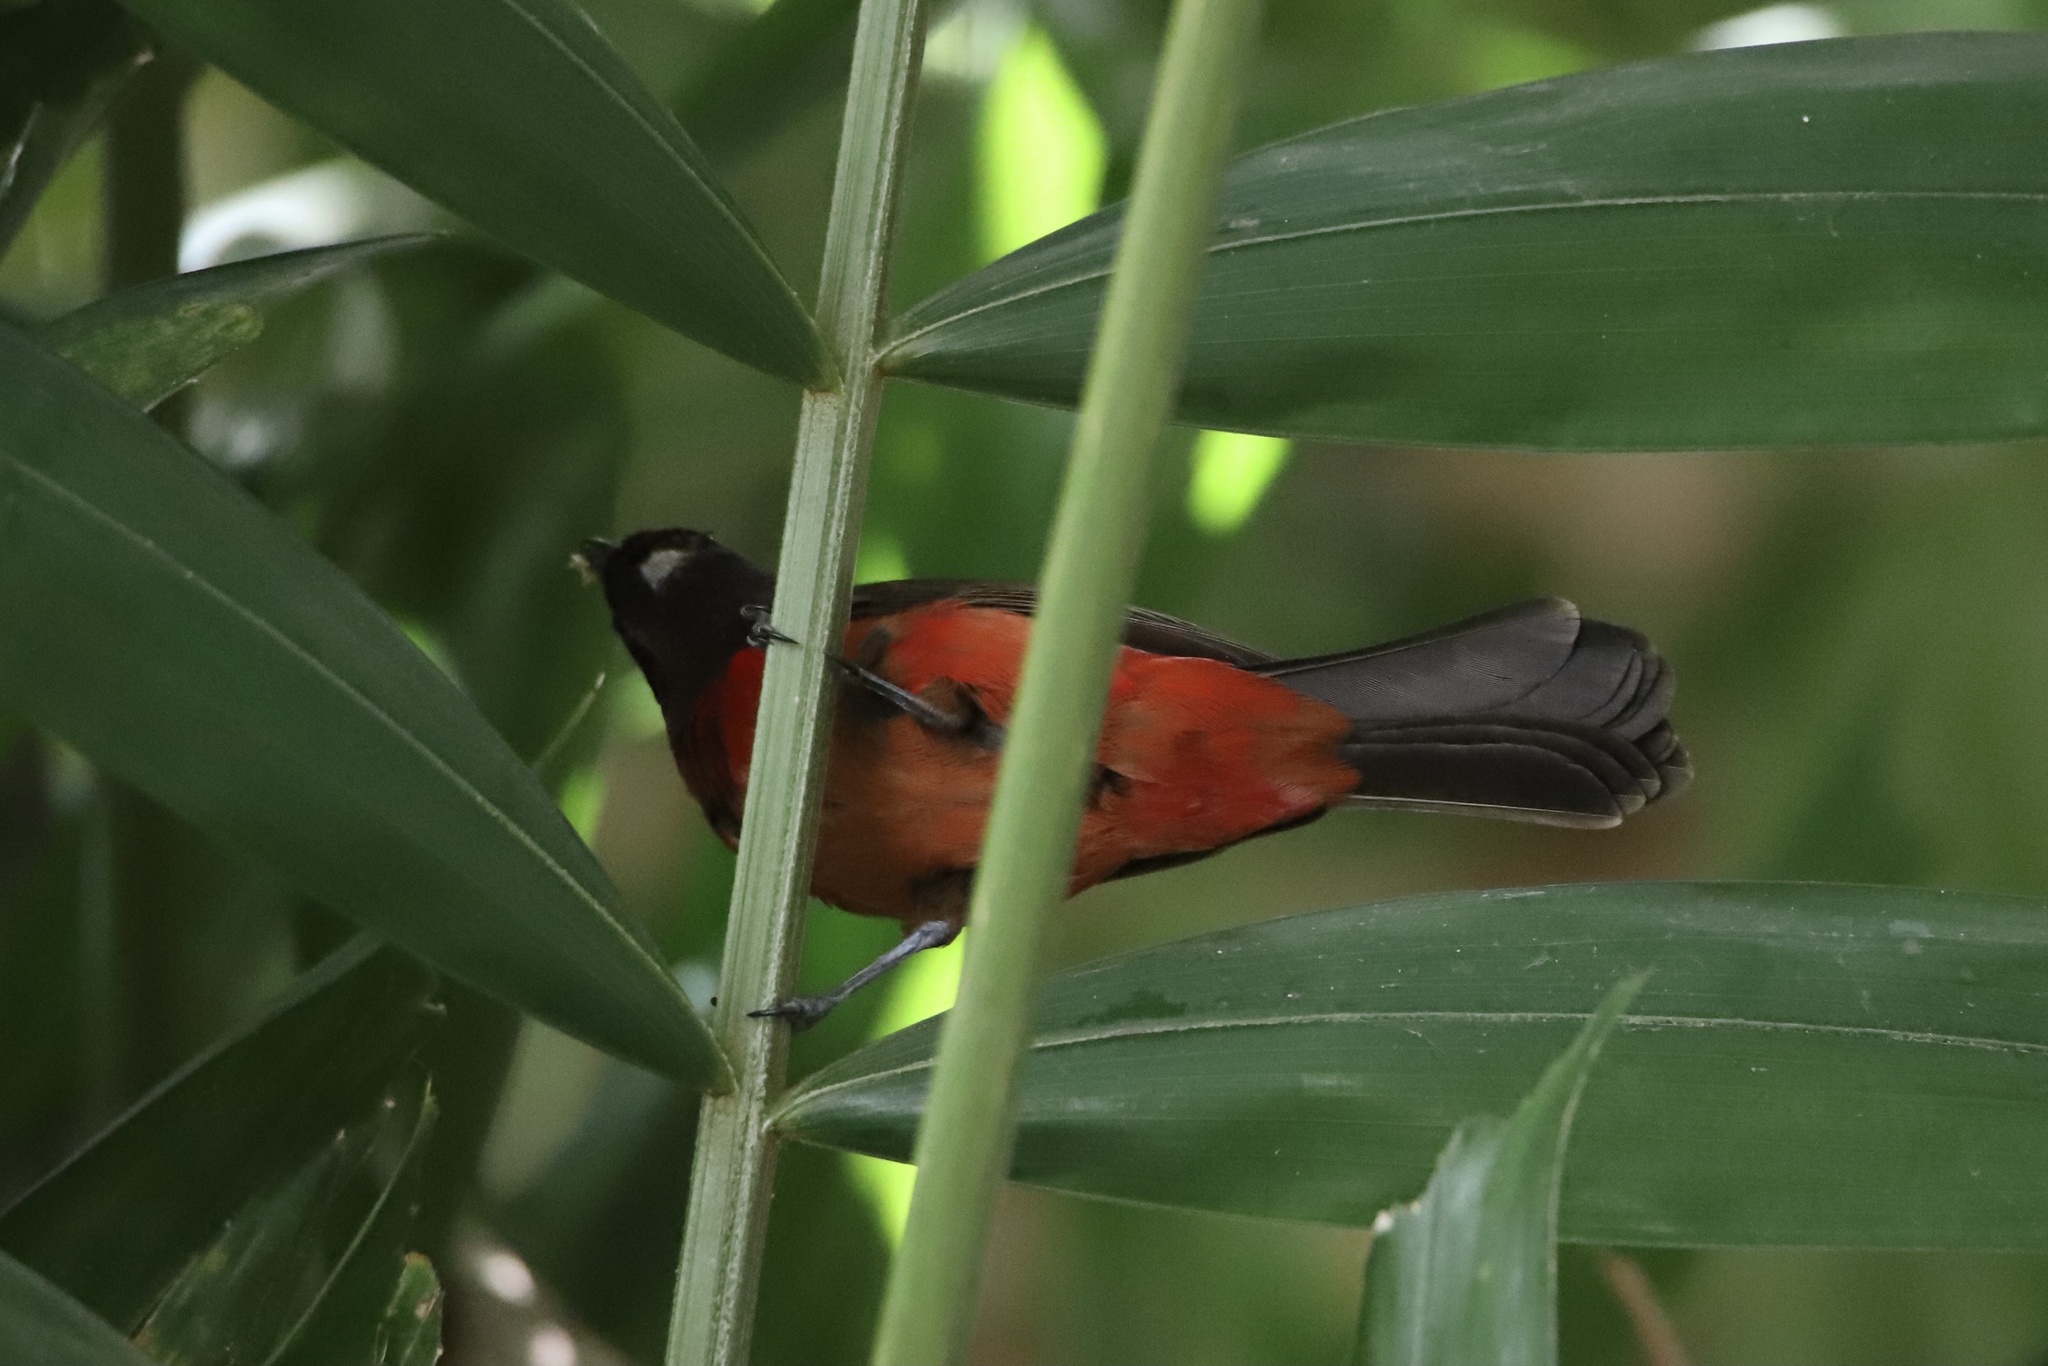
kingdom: Animalia
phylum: Chordata
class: Aves
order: Passeriformes
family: Thraupidae
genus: Ramphocelus
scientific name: Ramphocelus dimidiatus
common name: Crimson-backed tanager
